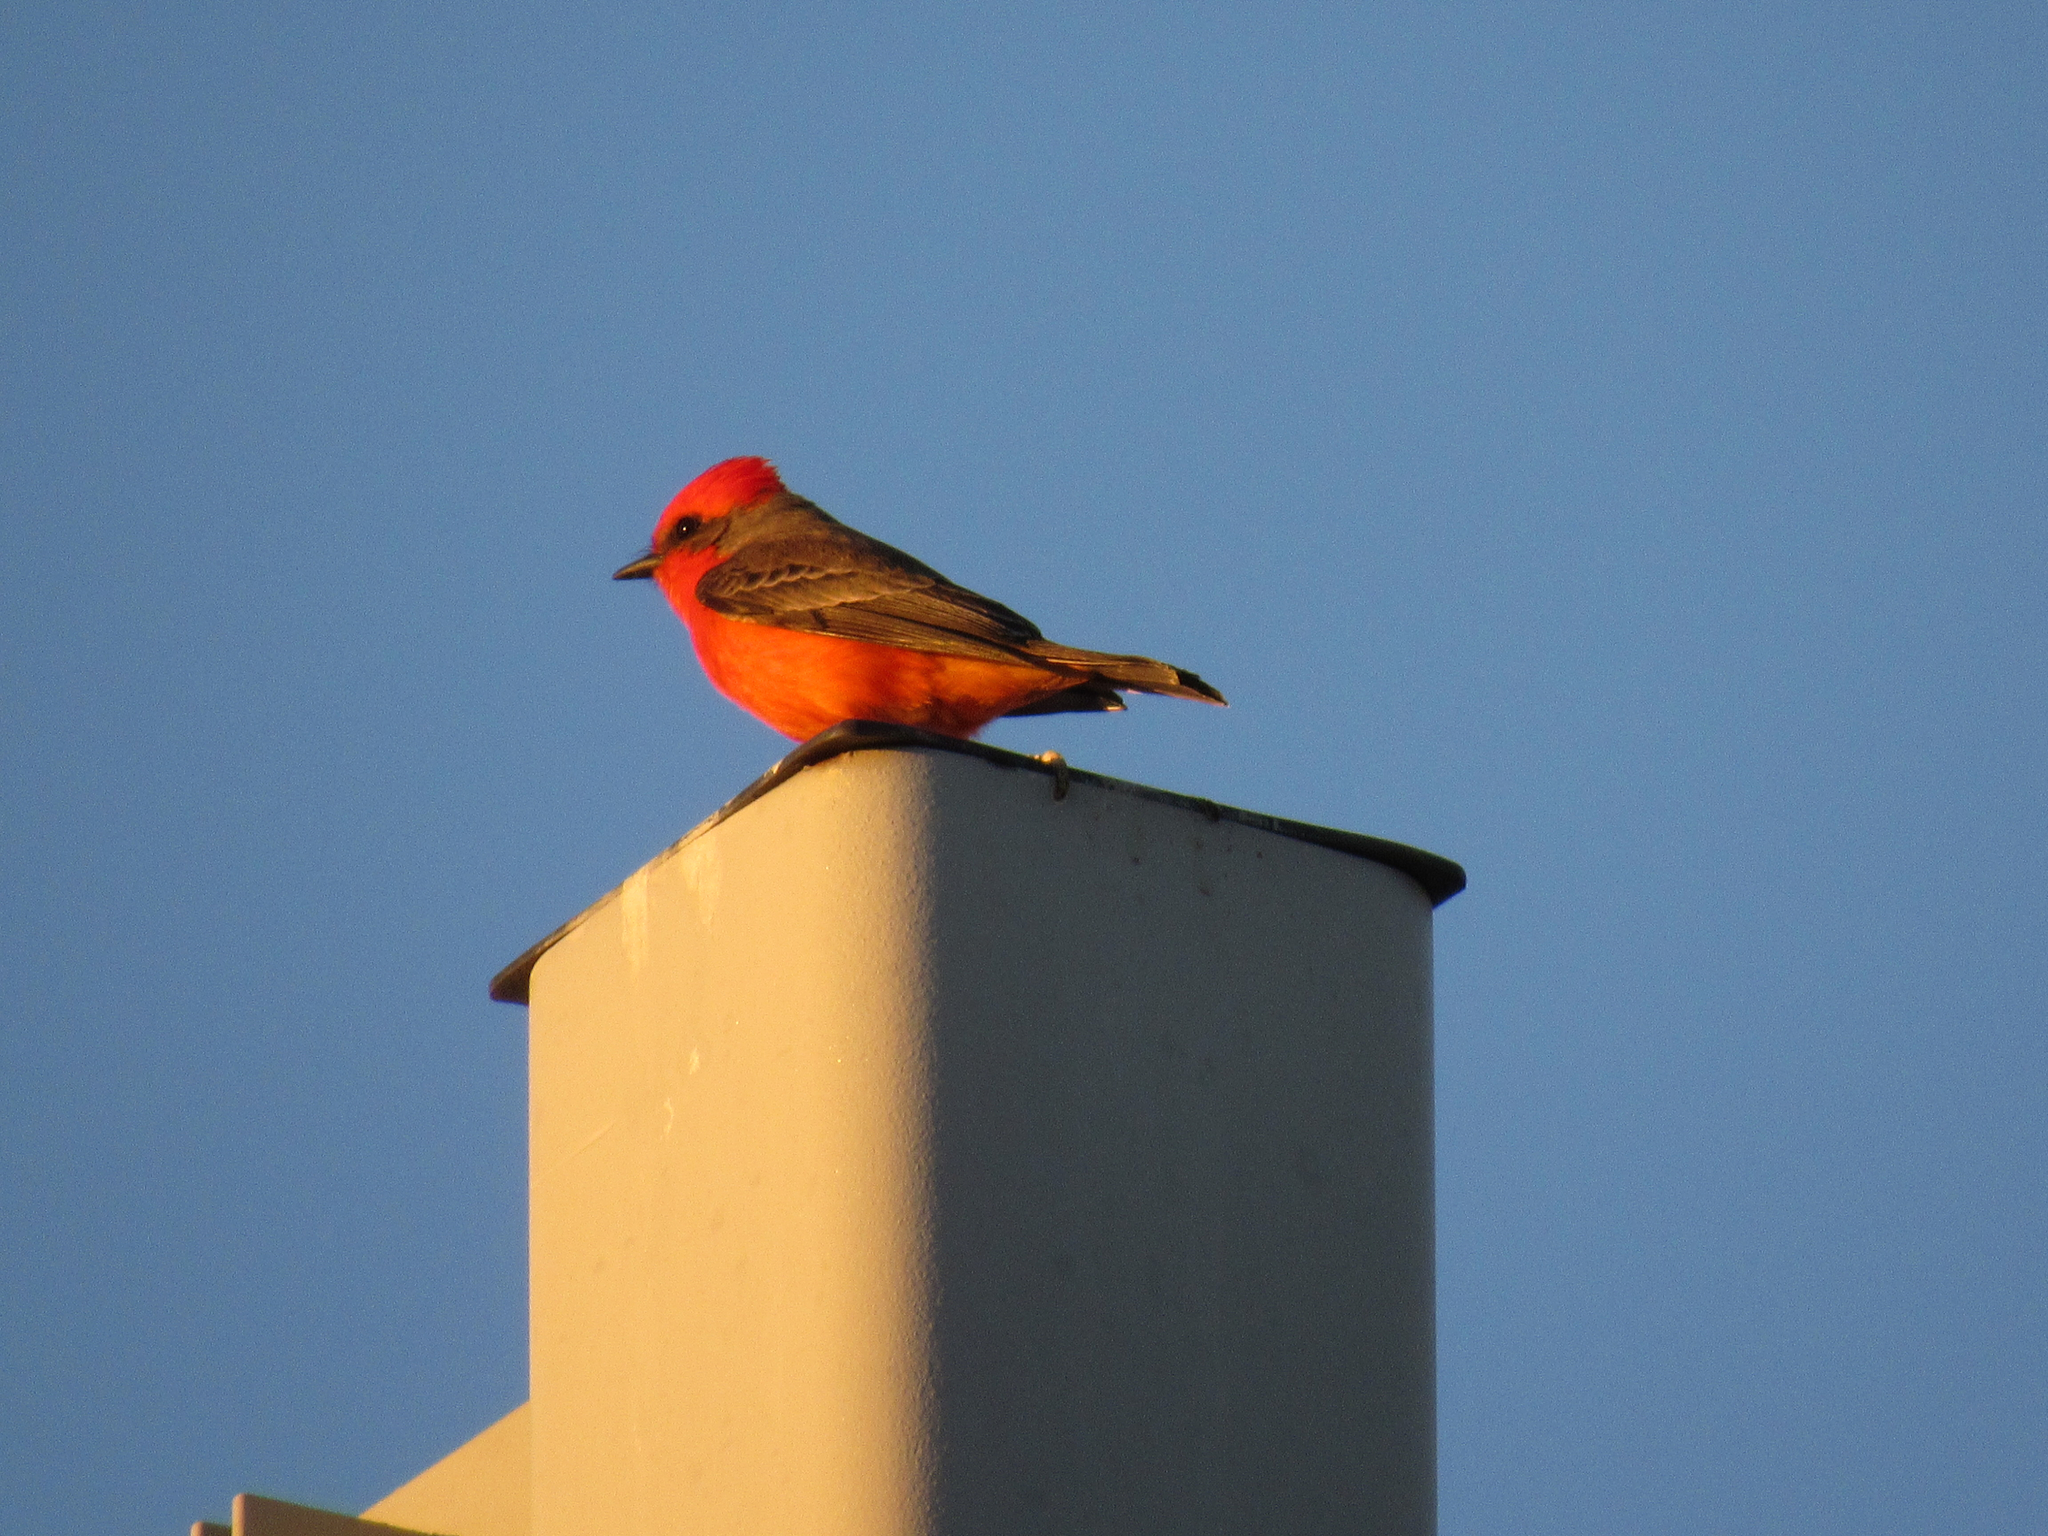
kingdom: Animalia
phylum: Chordata
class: Aves
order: Passeriformes
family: Tyrannidae
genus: Pyrocephalus
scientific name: Pyrocephalus rubinus
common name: Vermilion flycatcher
